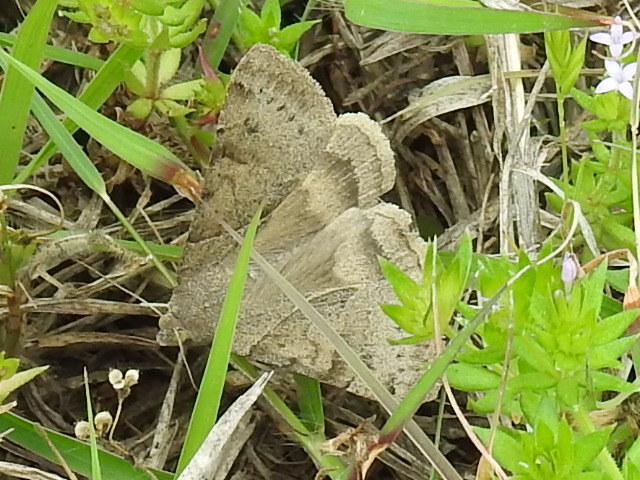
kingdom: Animalia
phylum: Arthropoda
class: Insecta
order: Lepidoptera
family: Erebidae
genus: Caenurgina
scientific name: Caenurgina erechtea
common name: Forage looper moth
